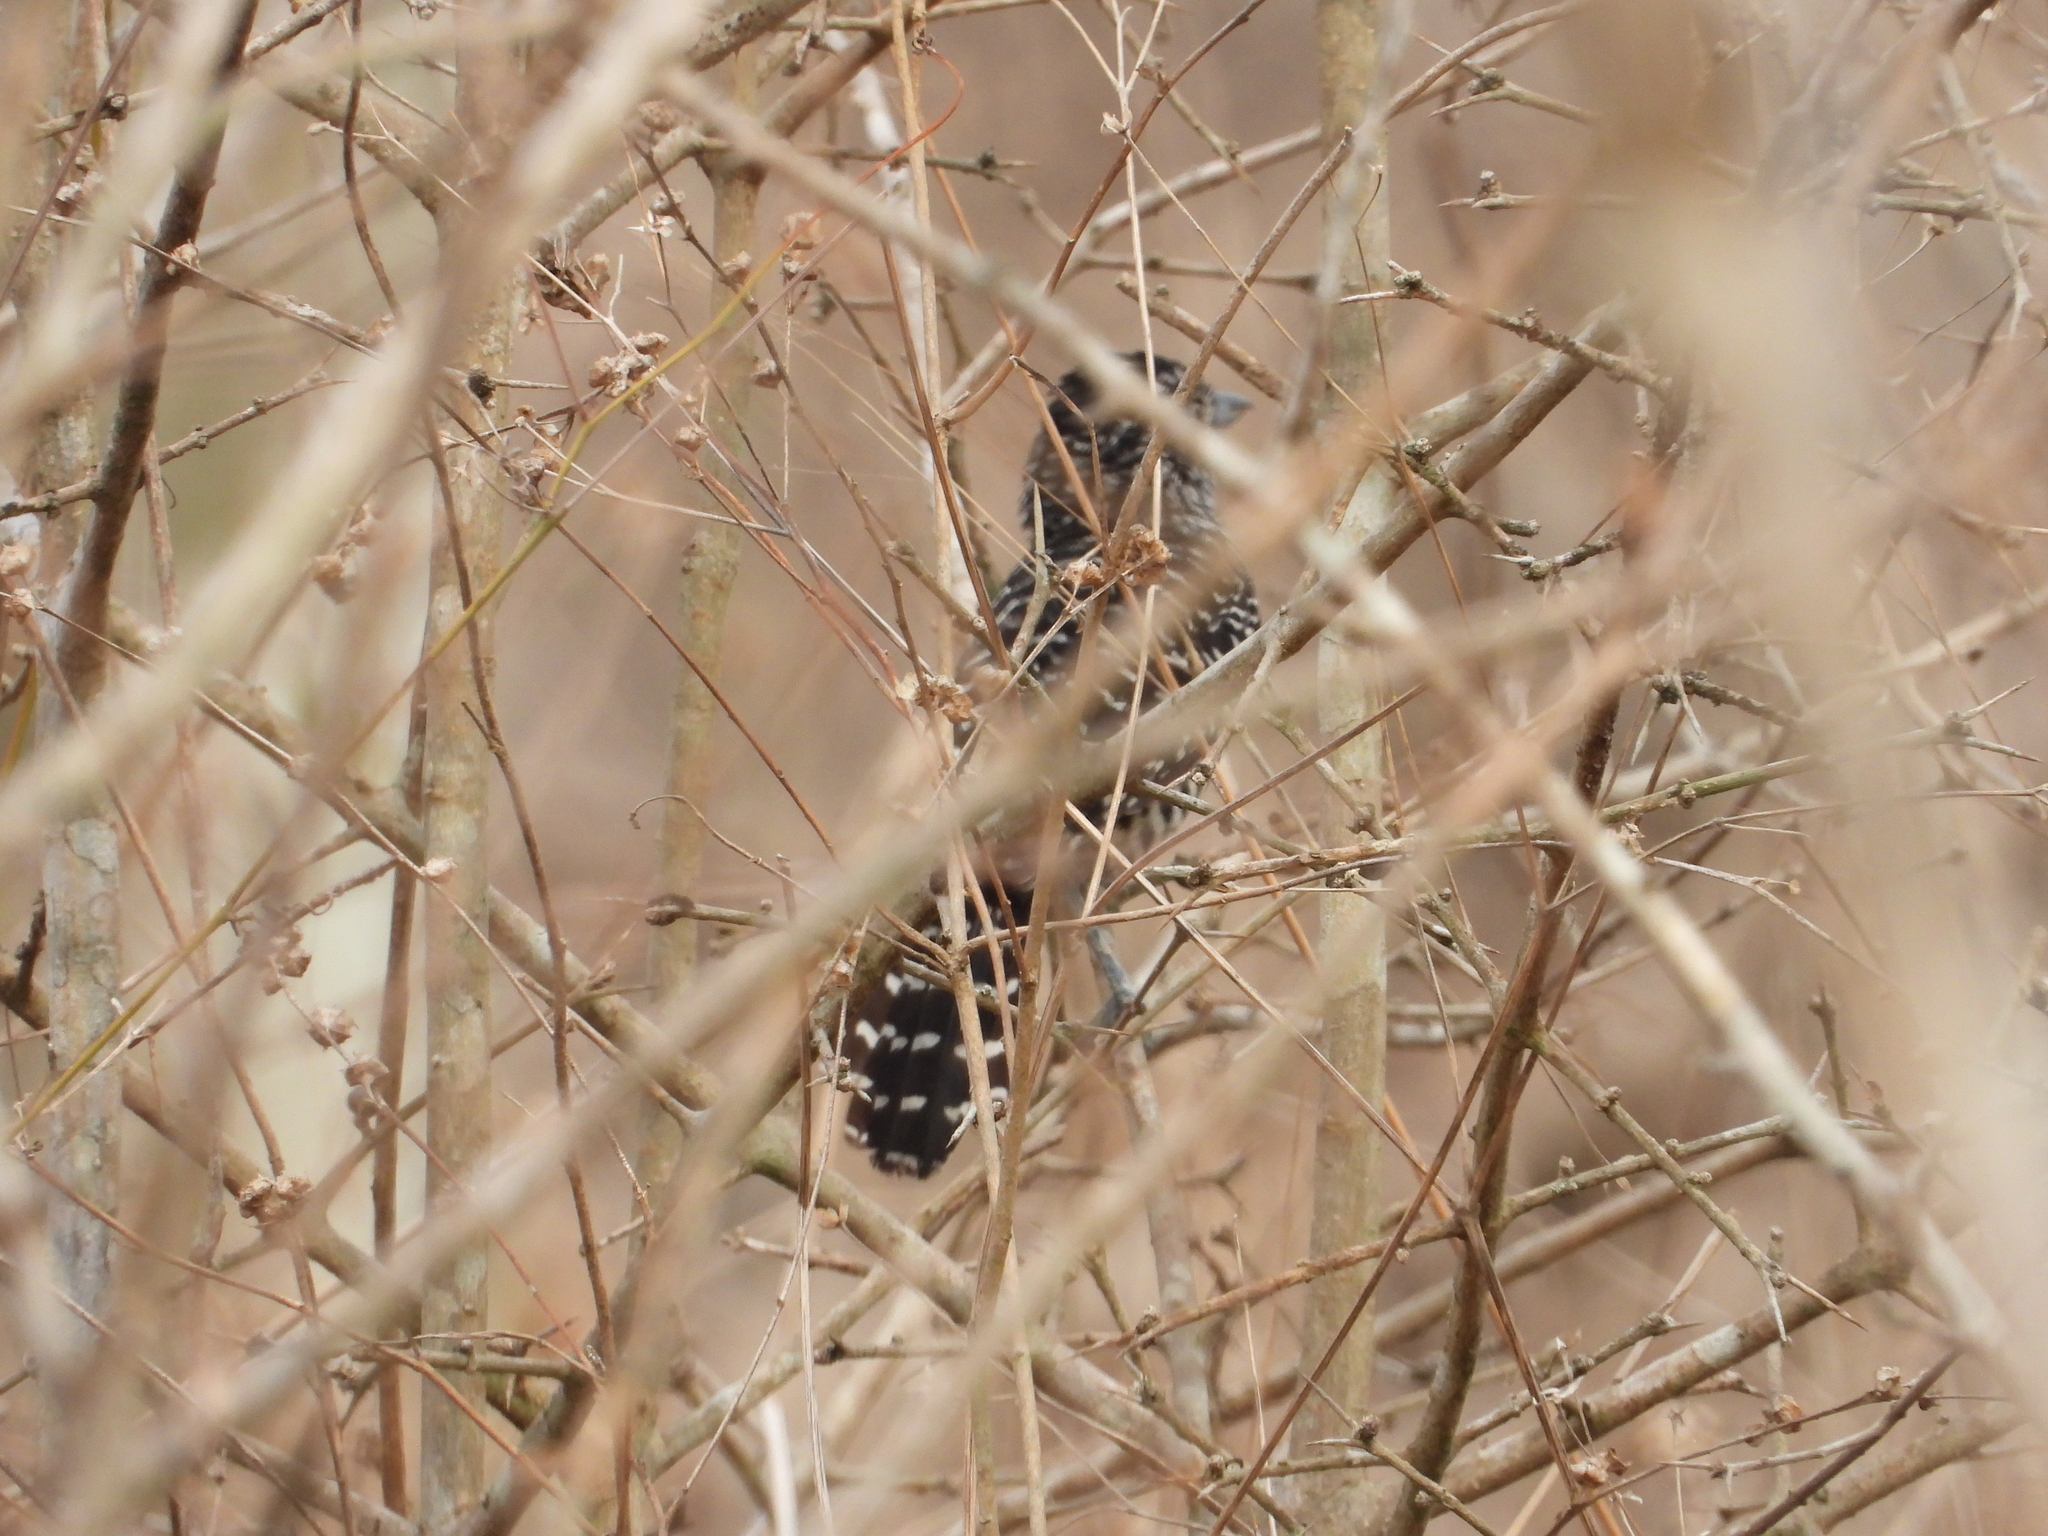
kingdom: Animalia
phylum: Chordata
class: Aves
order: Passeriformes
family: Thamnophilidae
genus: Thamnophilus
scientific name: Thamnophilus doliatus
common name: Barred antshrike
